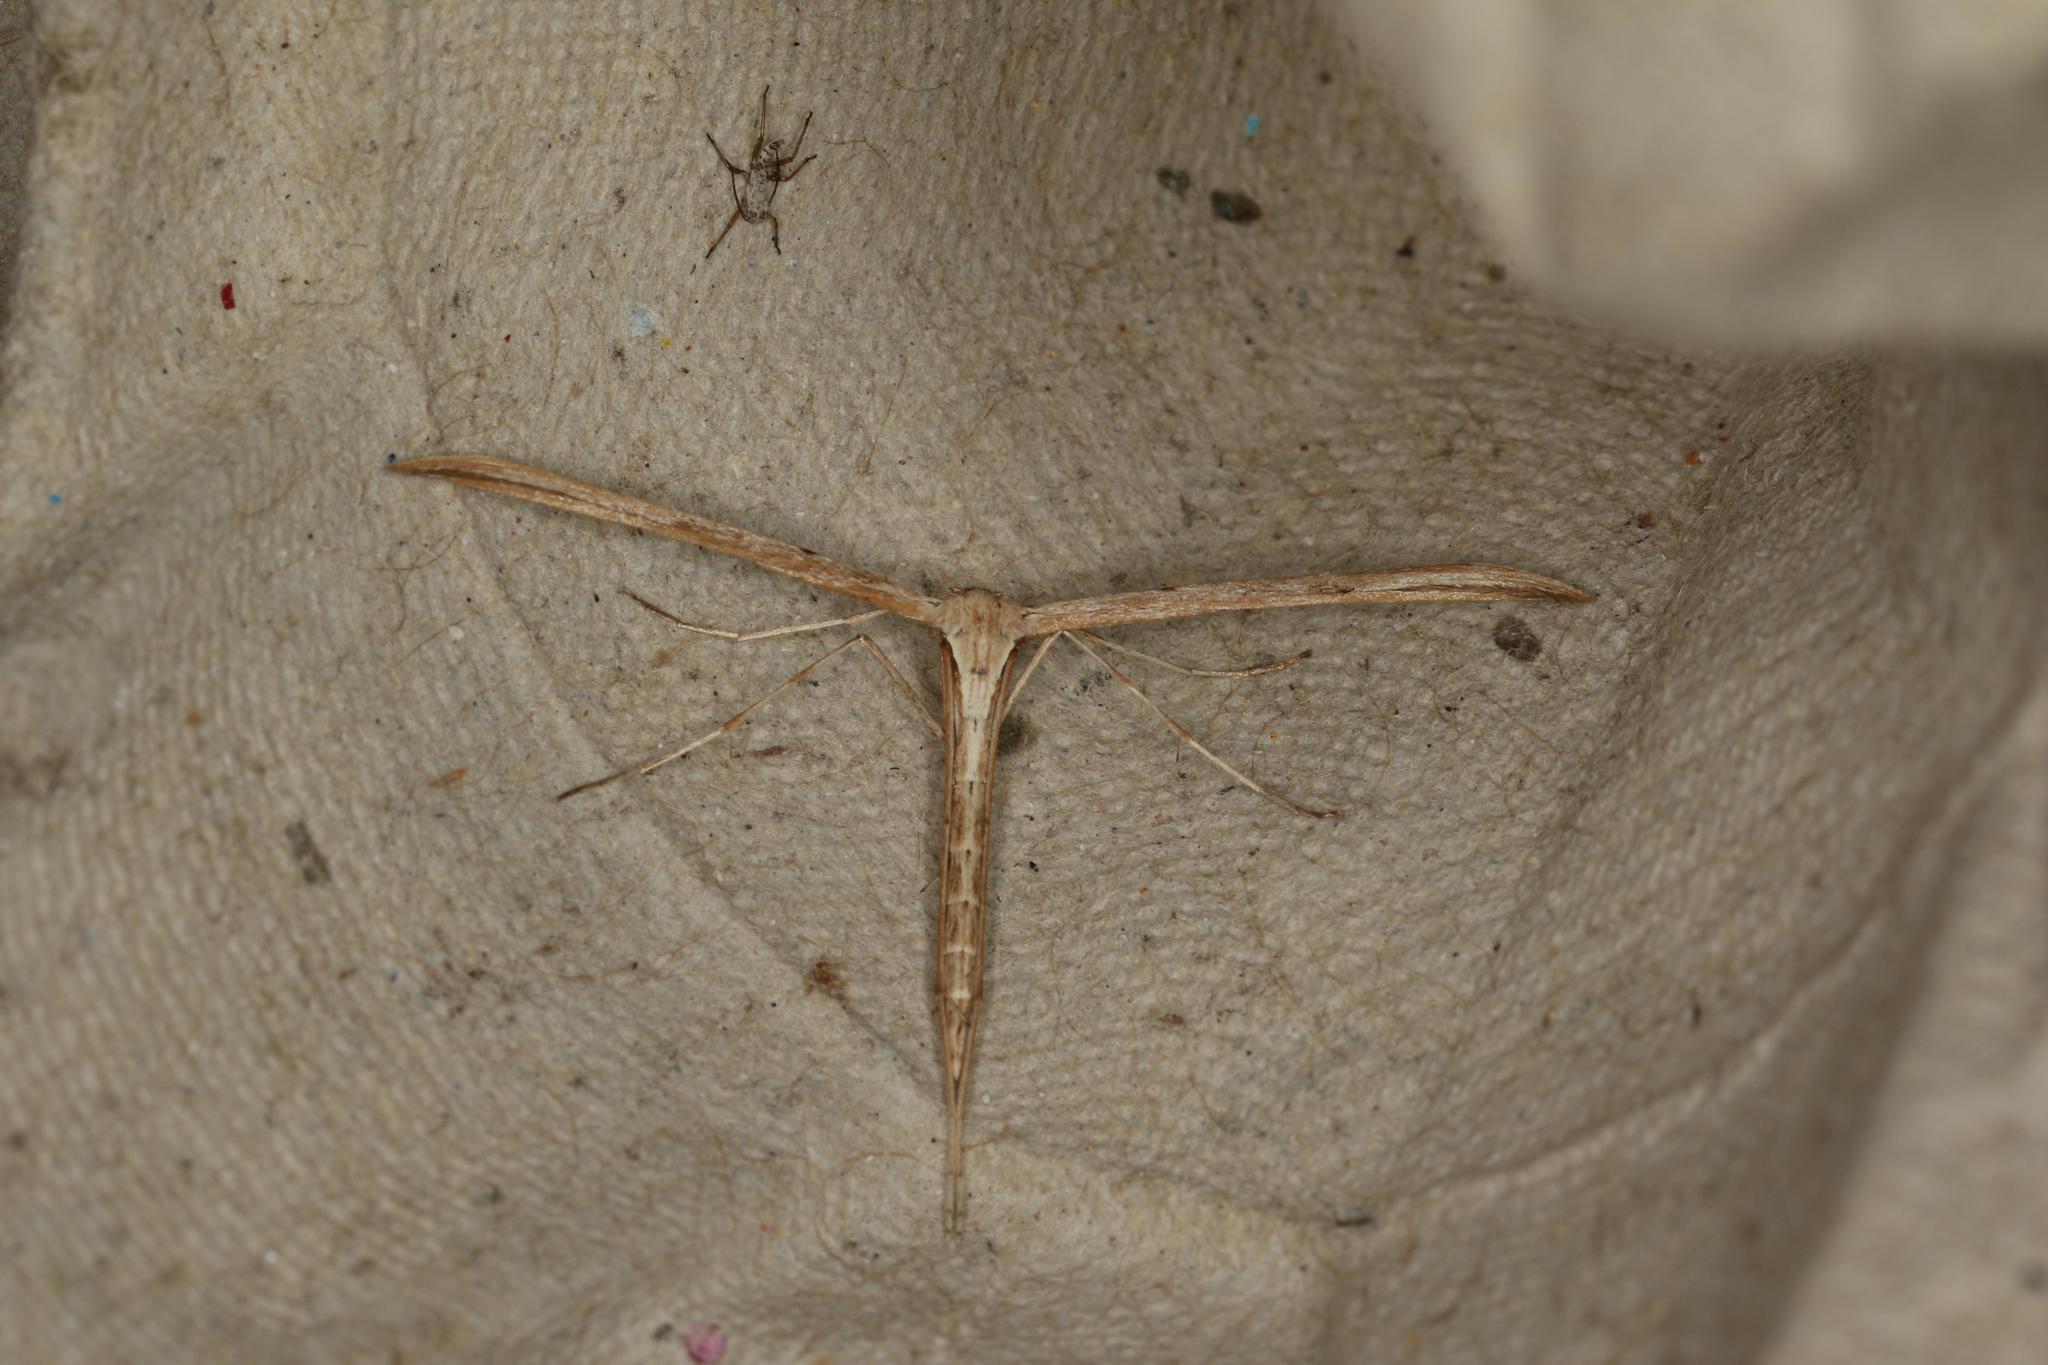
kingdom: Animalia
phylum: Arthropoda
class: Insecta
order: Lepidoptera
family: Pterophoridae
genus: Emmelina
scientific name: Emmelina monodactyla
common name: Common plume
